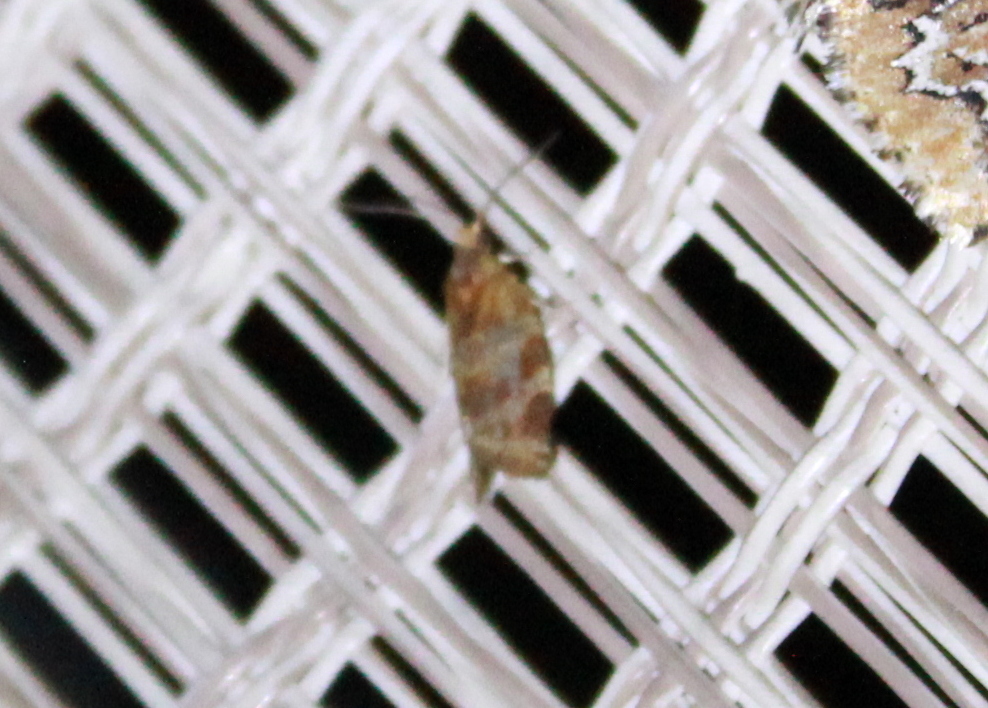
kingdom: Animalia
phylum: Arthropoda
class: Insecta
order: Lepidoptera
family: Tortricidae
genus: Argyrotaenia
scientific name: Argyrotaenia pinatubana
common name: Pine tube moth
